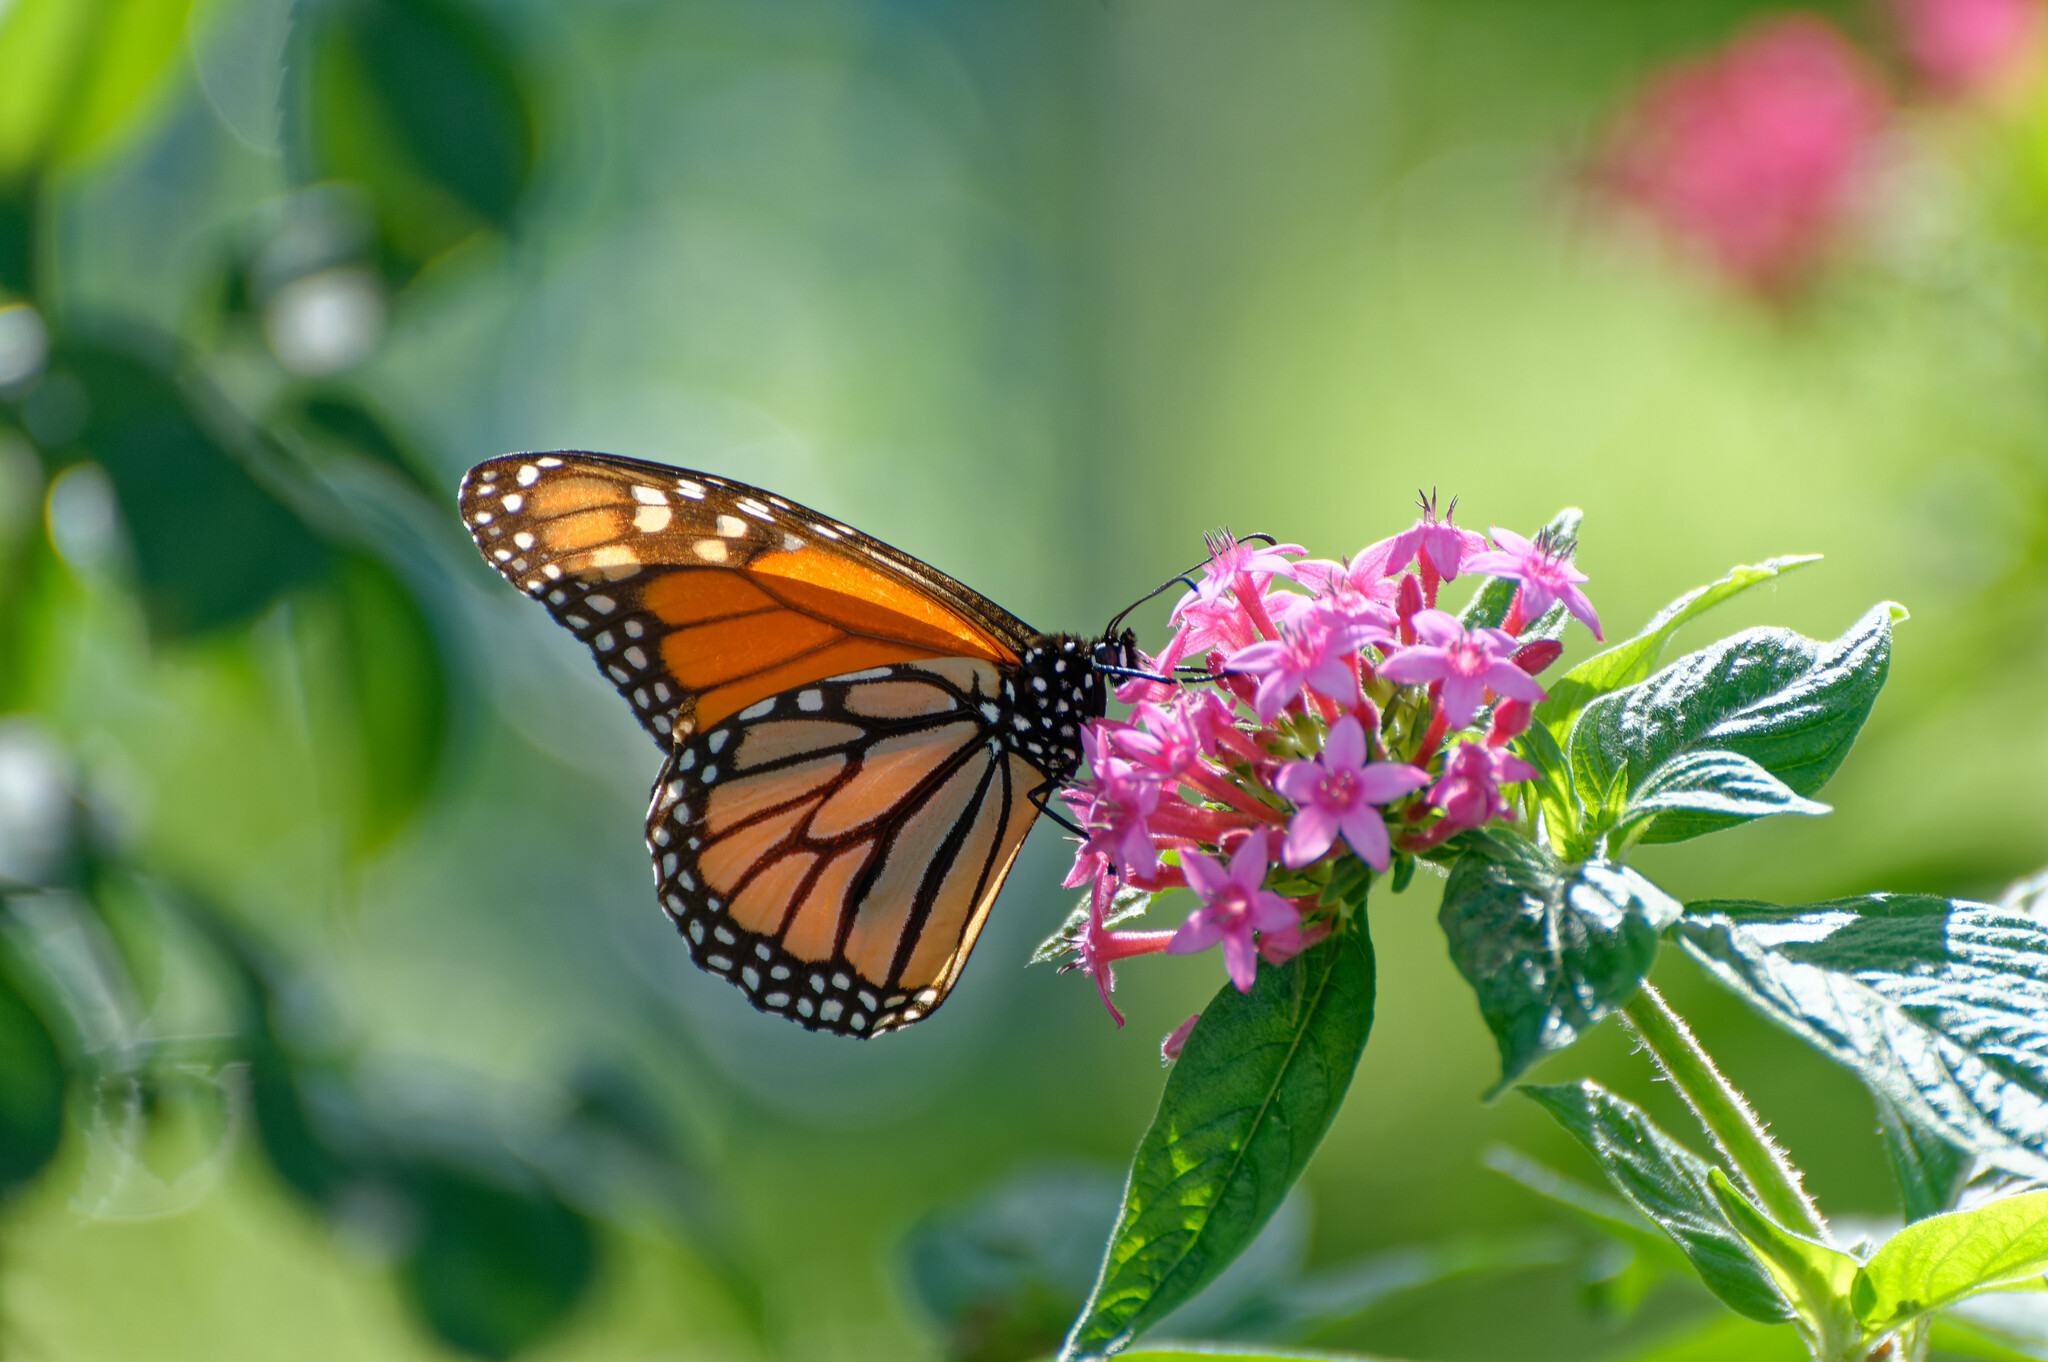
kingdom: Animalia
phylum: Arthropoda
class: Insecta
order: Lepidoptera
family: Nymphalidae
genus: Danaus
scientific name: Danaus plexippus
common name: Monarch
